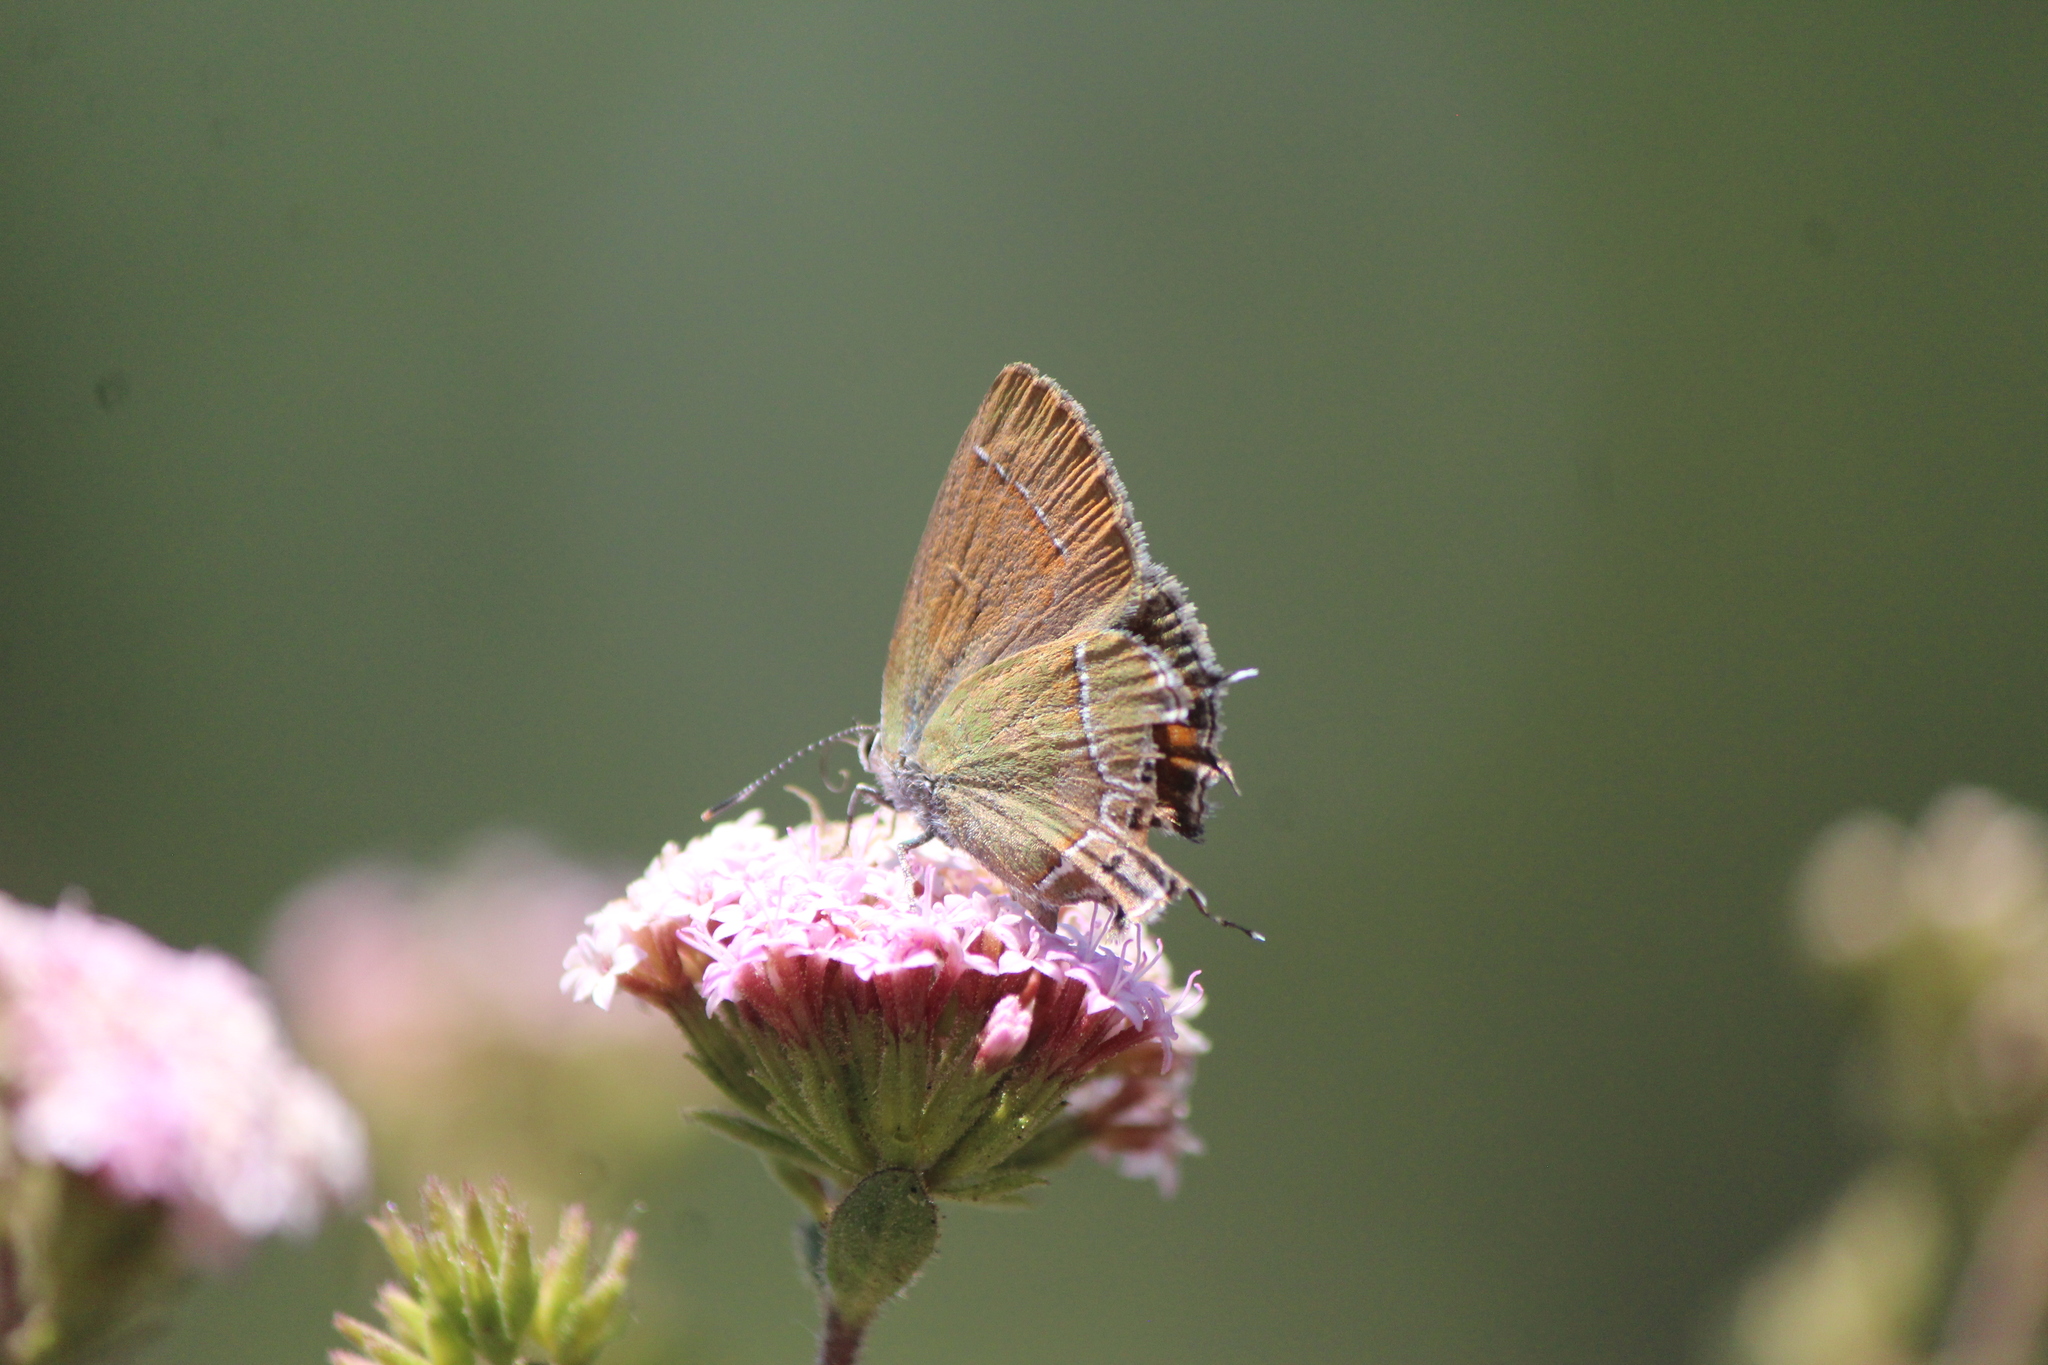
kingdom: Animalia
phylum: Arthropoda
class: Insecta
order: Lepidoptera
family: Lycaenidae
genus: Xamia
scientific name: Xamia xami
